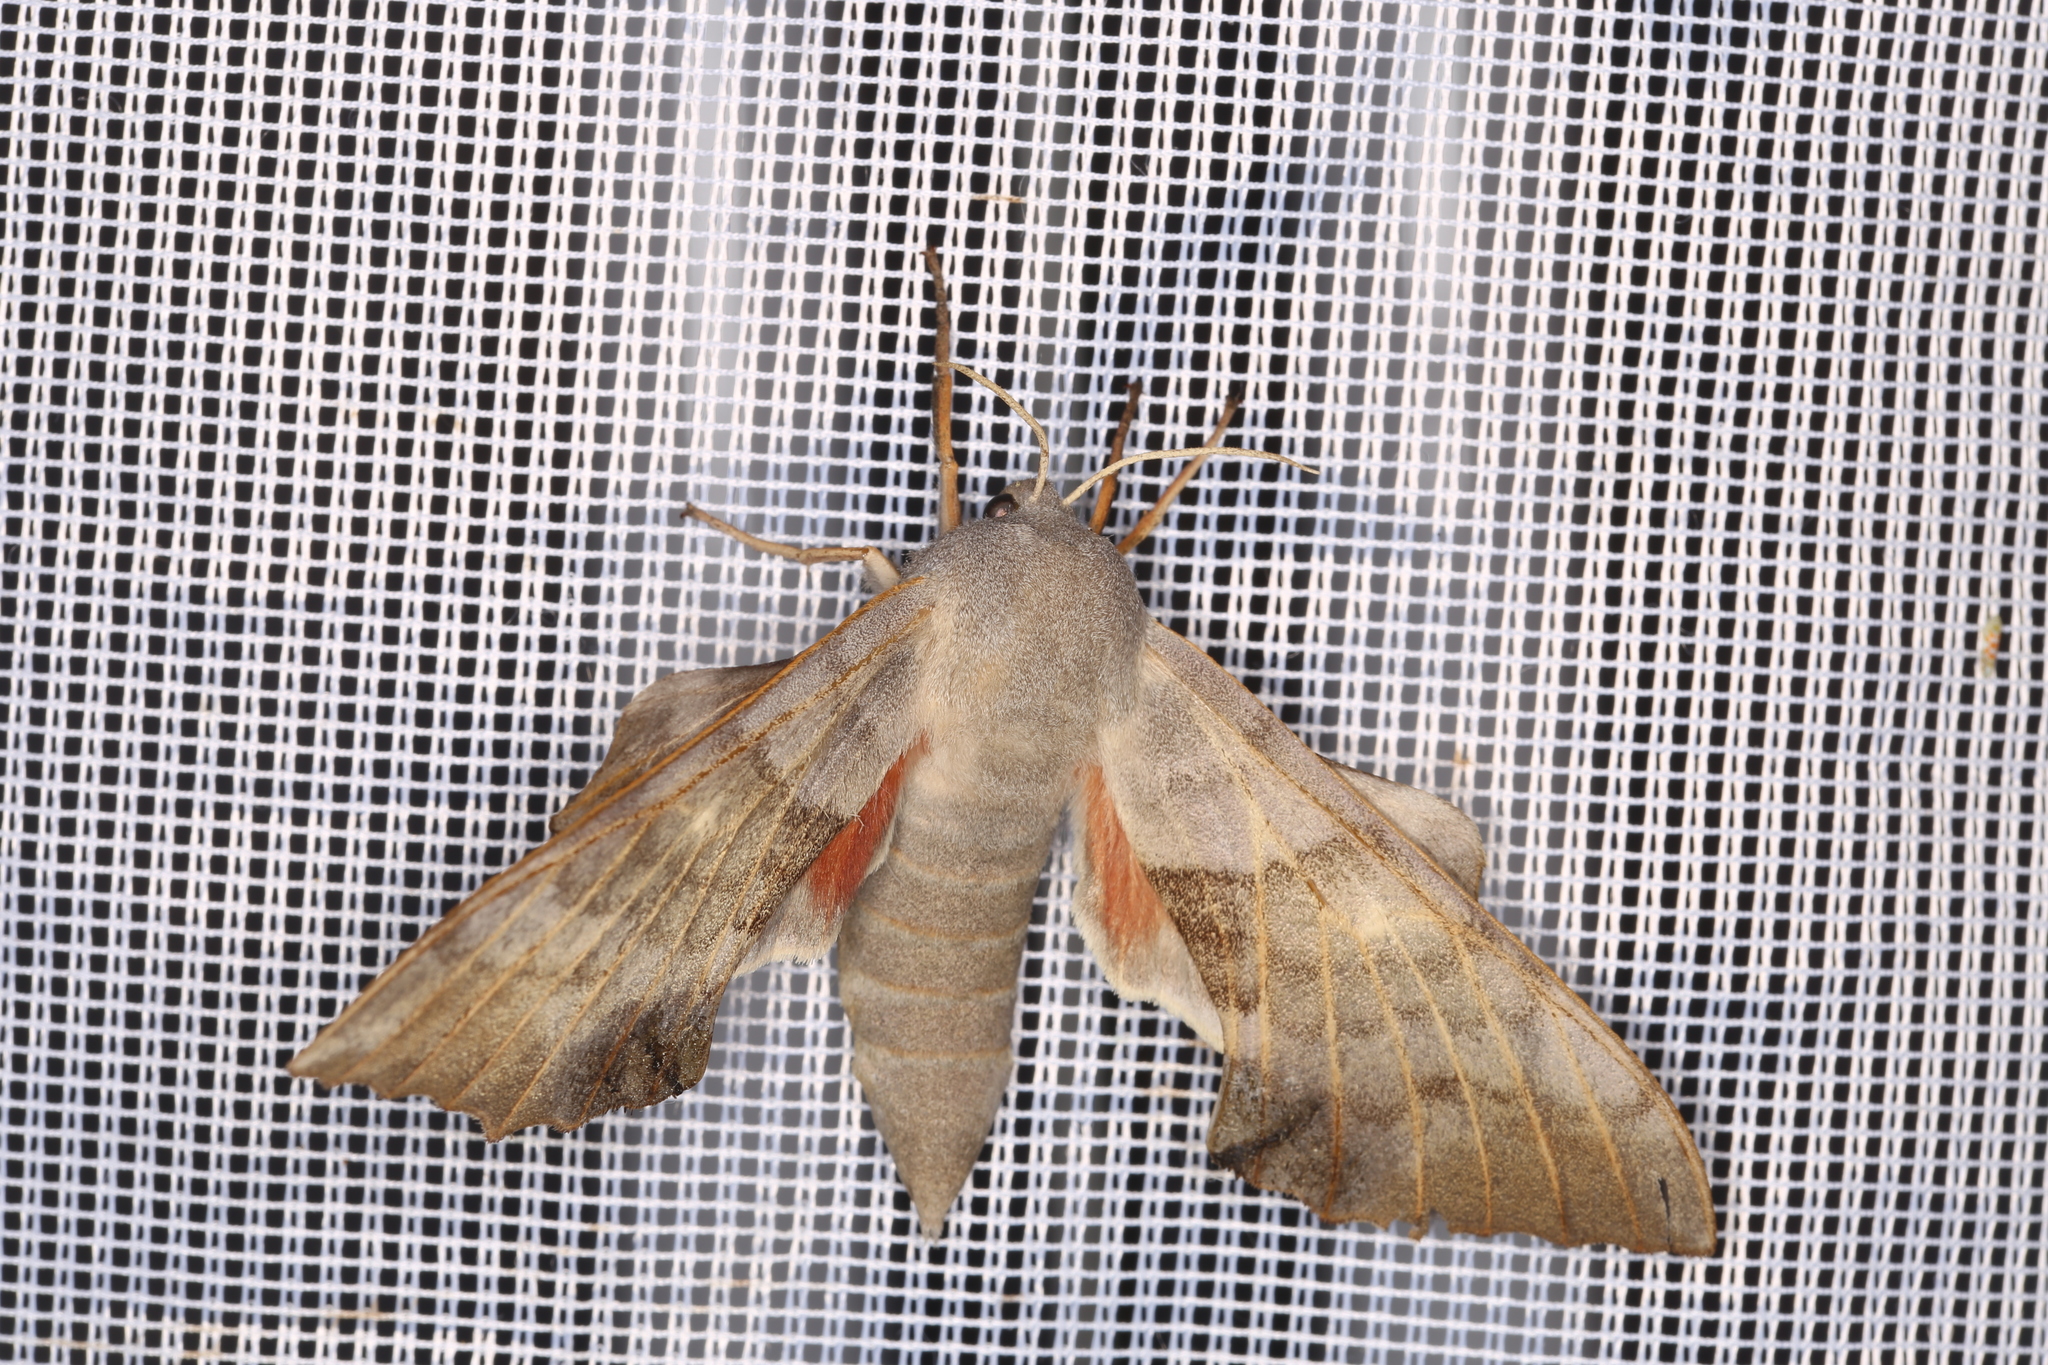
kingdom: Animalia
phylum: Arthropoda
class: Insecta
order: Lepidoptera
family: Sphingidae
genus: Laothoe
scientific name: Laothoe populi
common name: Poplar hawk-moth
